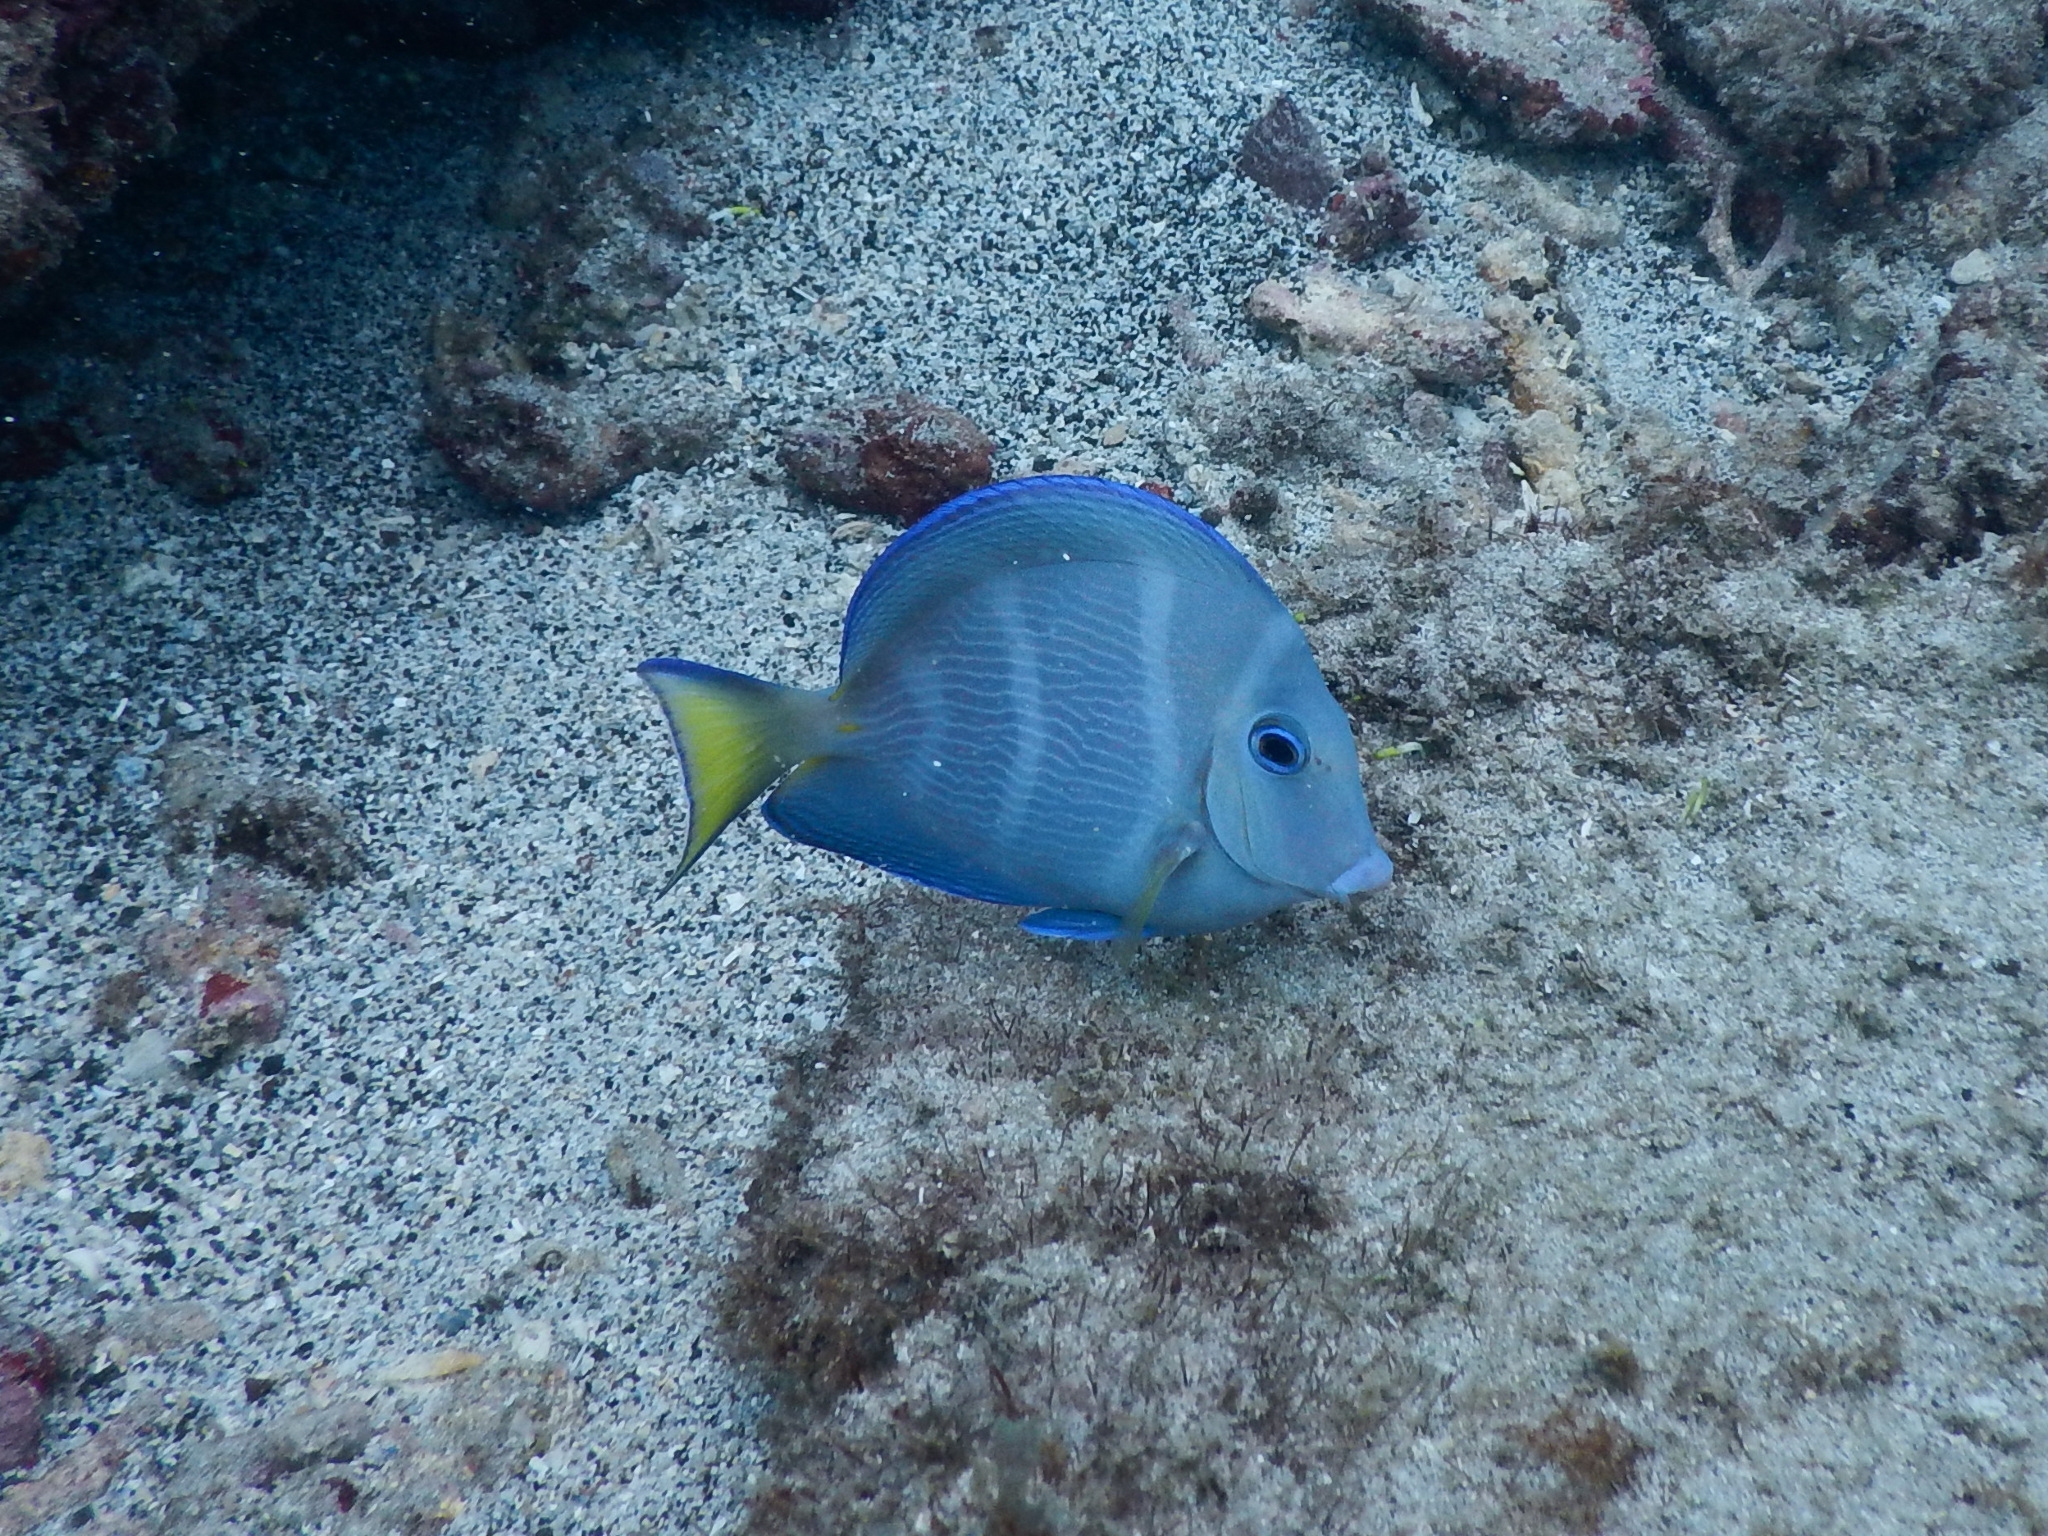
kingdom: Animalia
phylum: Chordata
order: Perciformes
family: Acanthuridae
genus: Acanthurus
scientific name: Acanthurus coeruleus
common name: Blue tang
